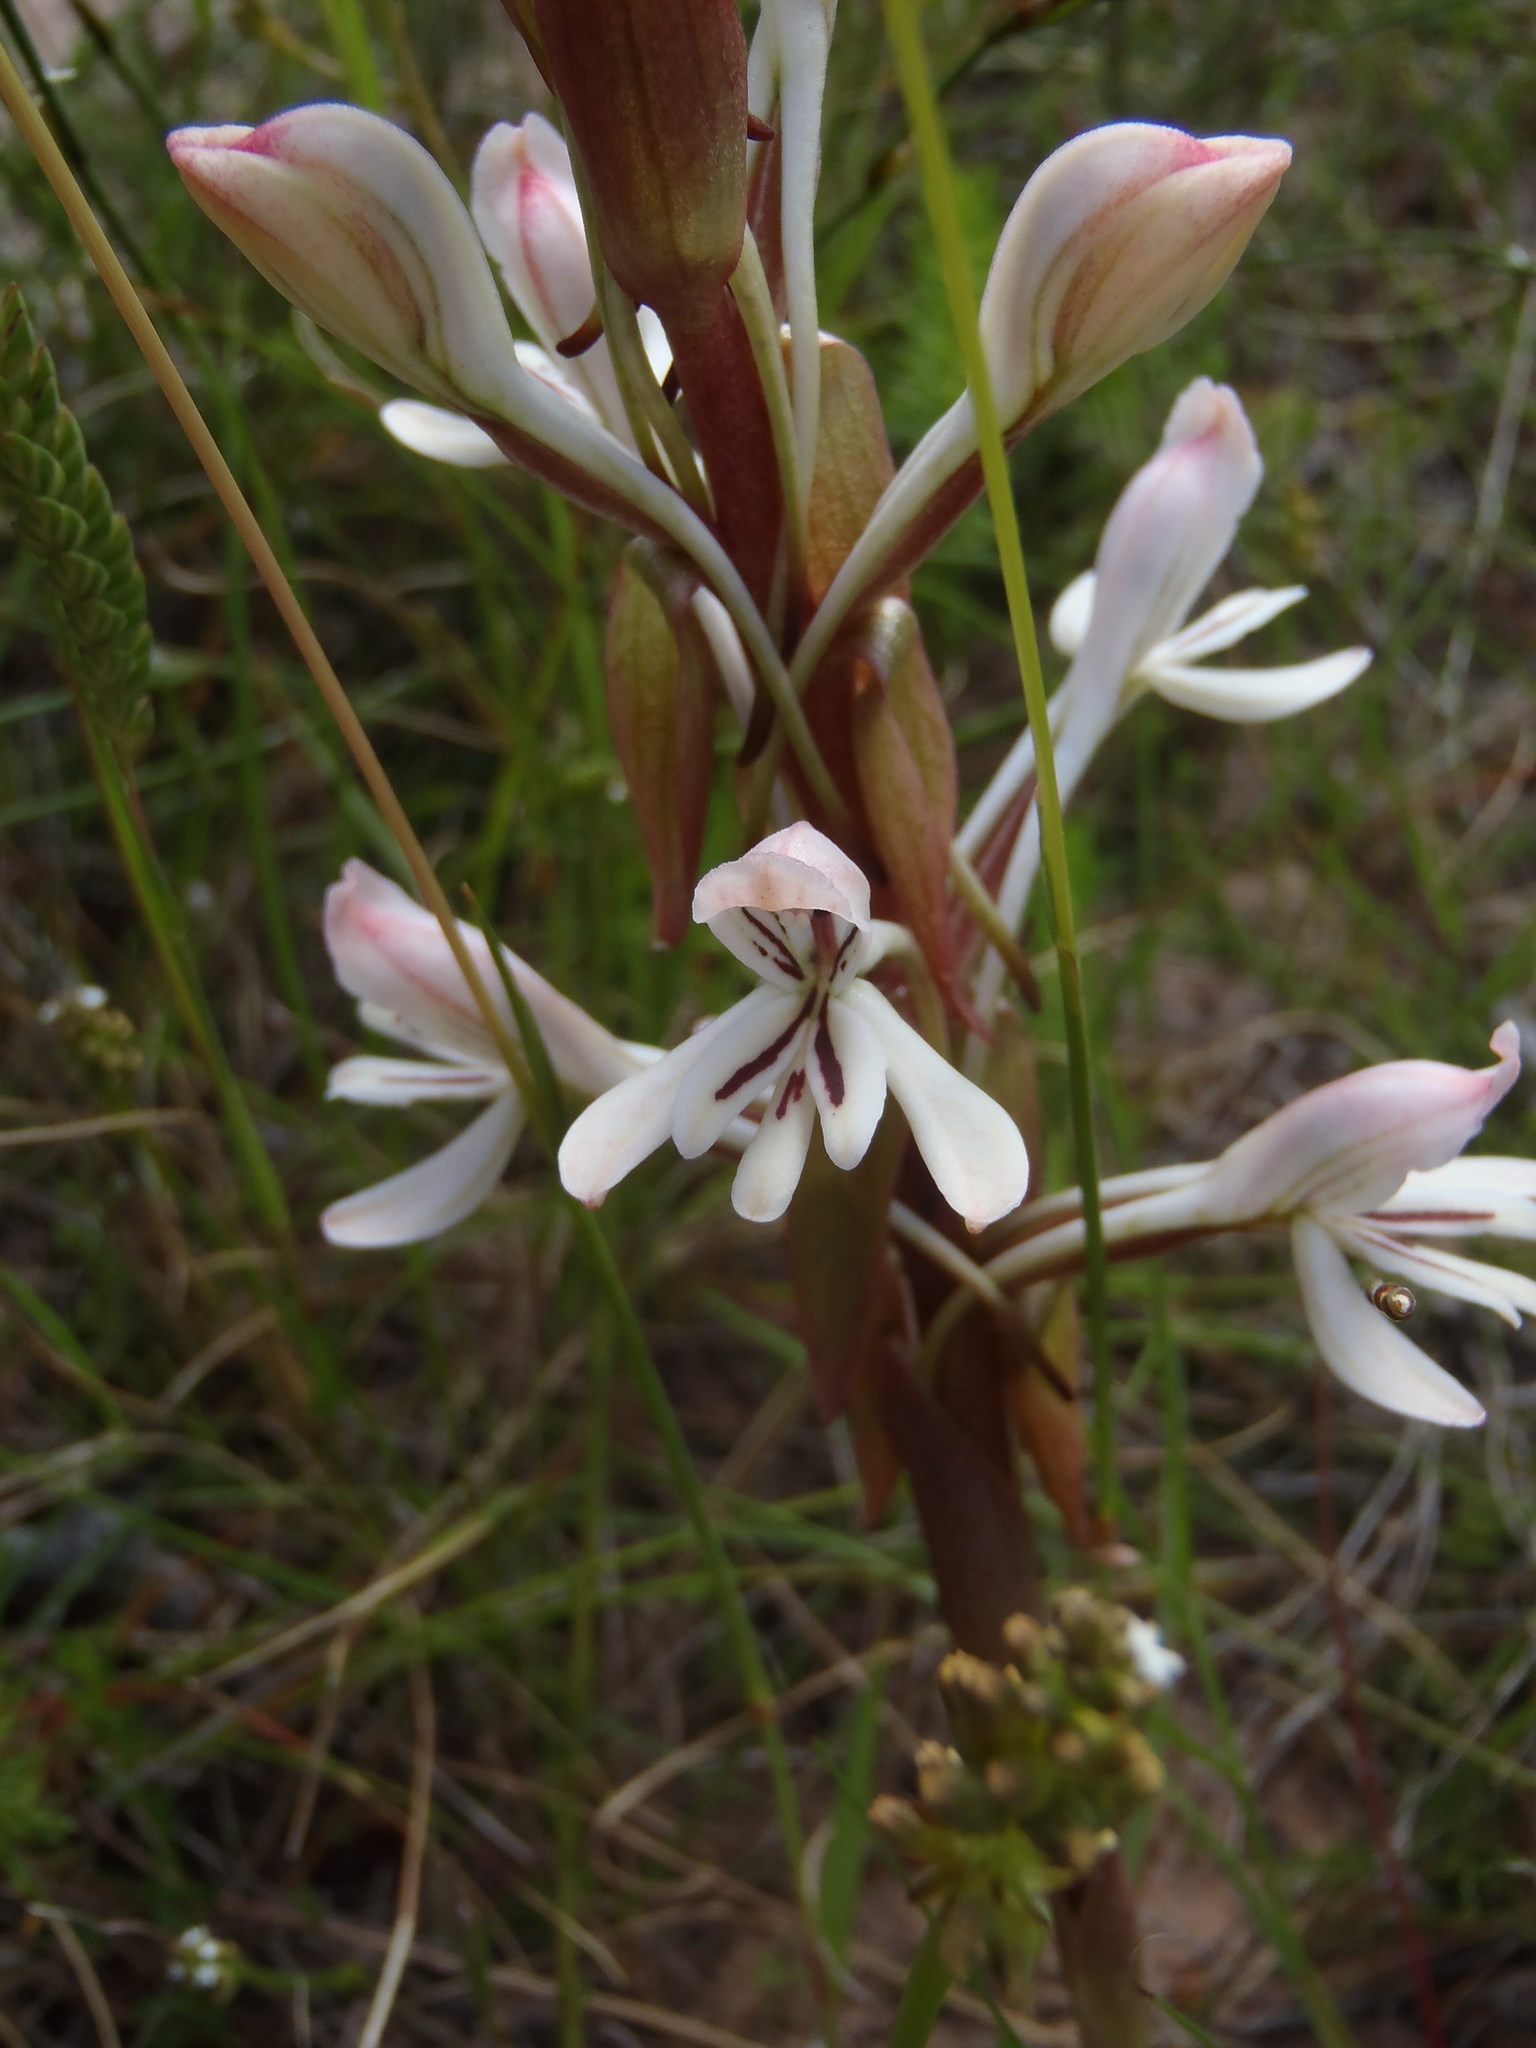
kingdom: Plantae
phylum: Tracheophyta
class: Liliopsida
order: Asparagales
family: Orchidaceae
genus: Satyrium
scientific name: Satyrium longicolle
